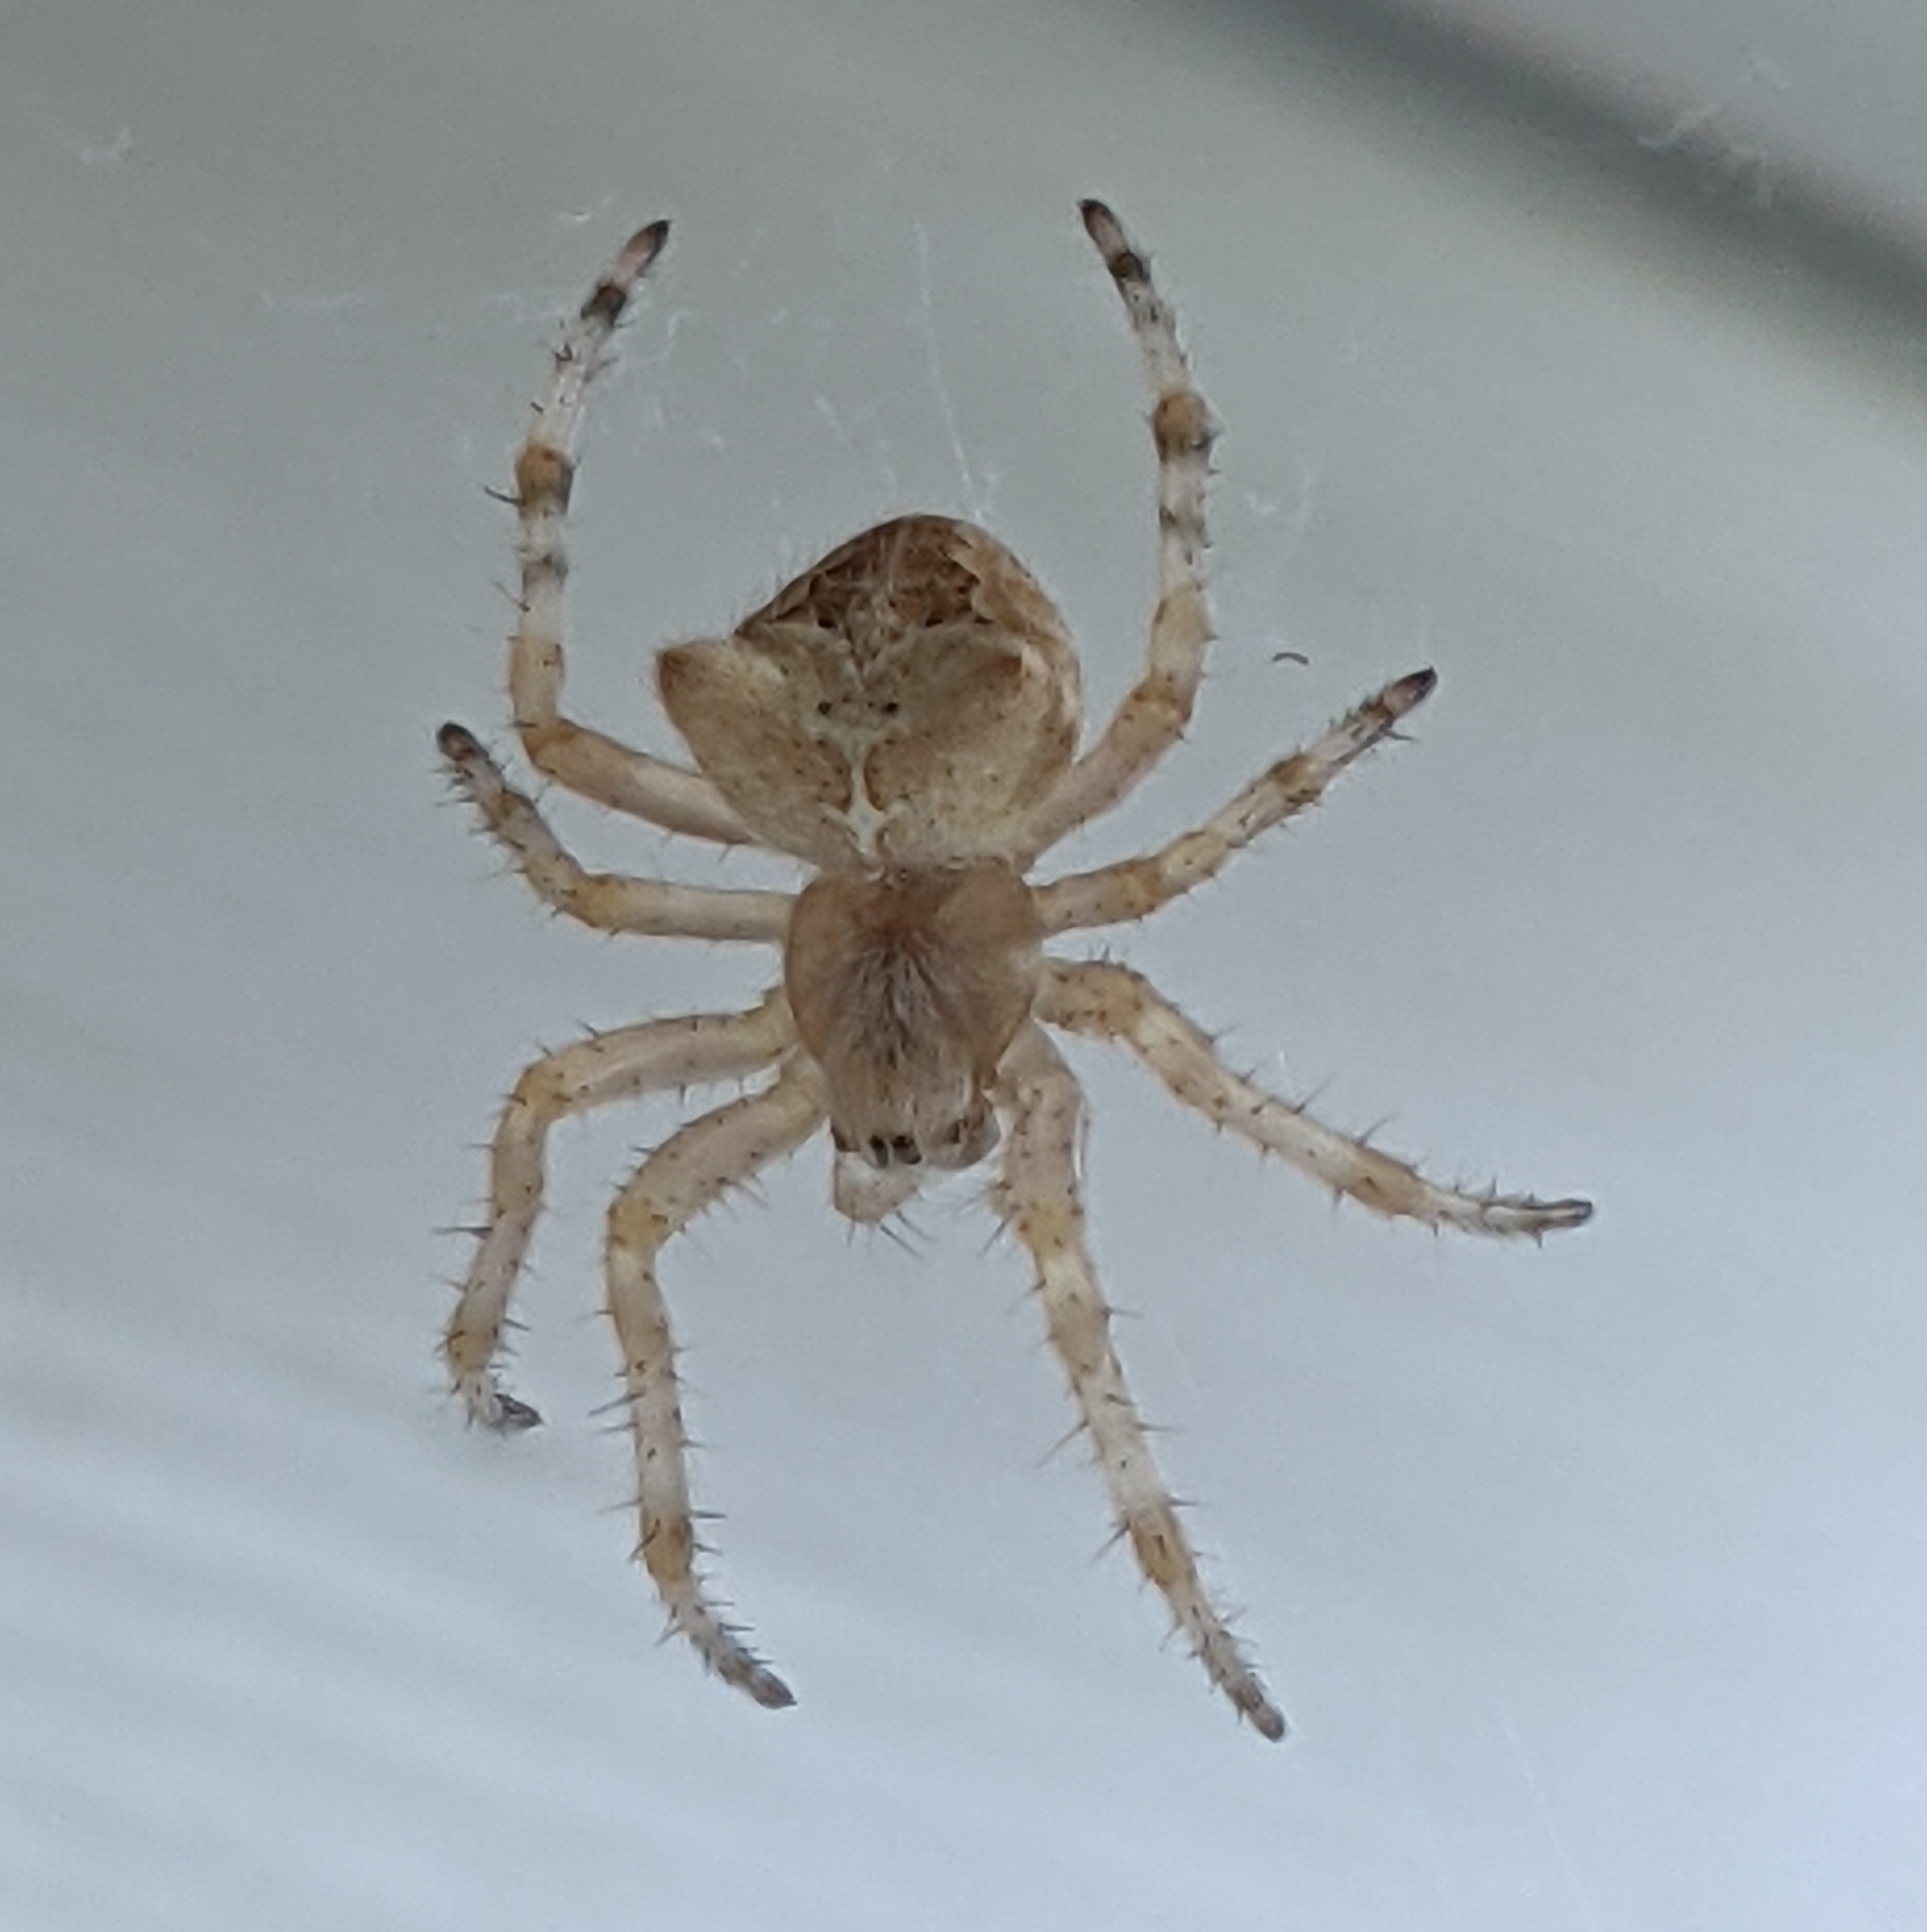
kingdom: Animalia
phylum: Arthropoda
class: Arachnida
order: Araneae
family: Araneidae
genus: Araneus
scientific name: Araneus gemmoides
